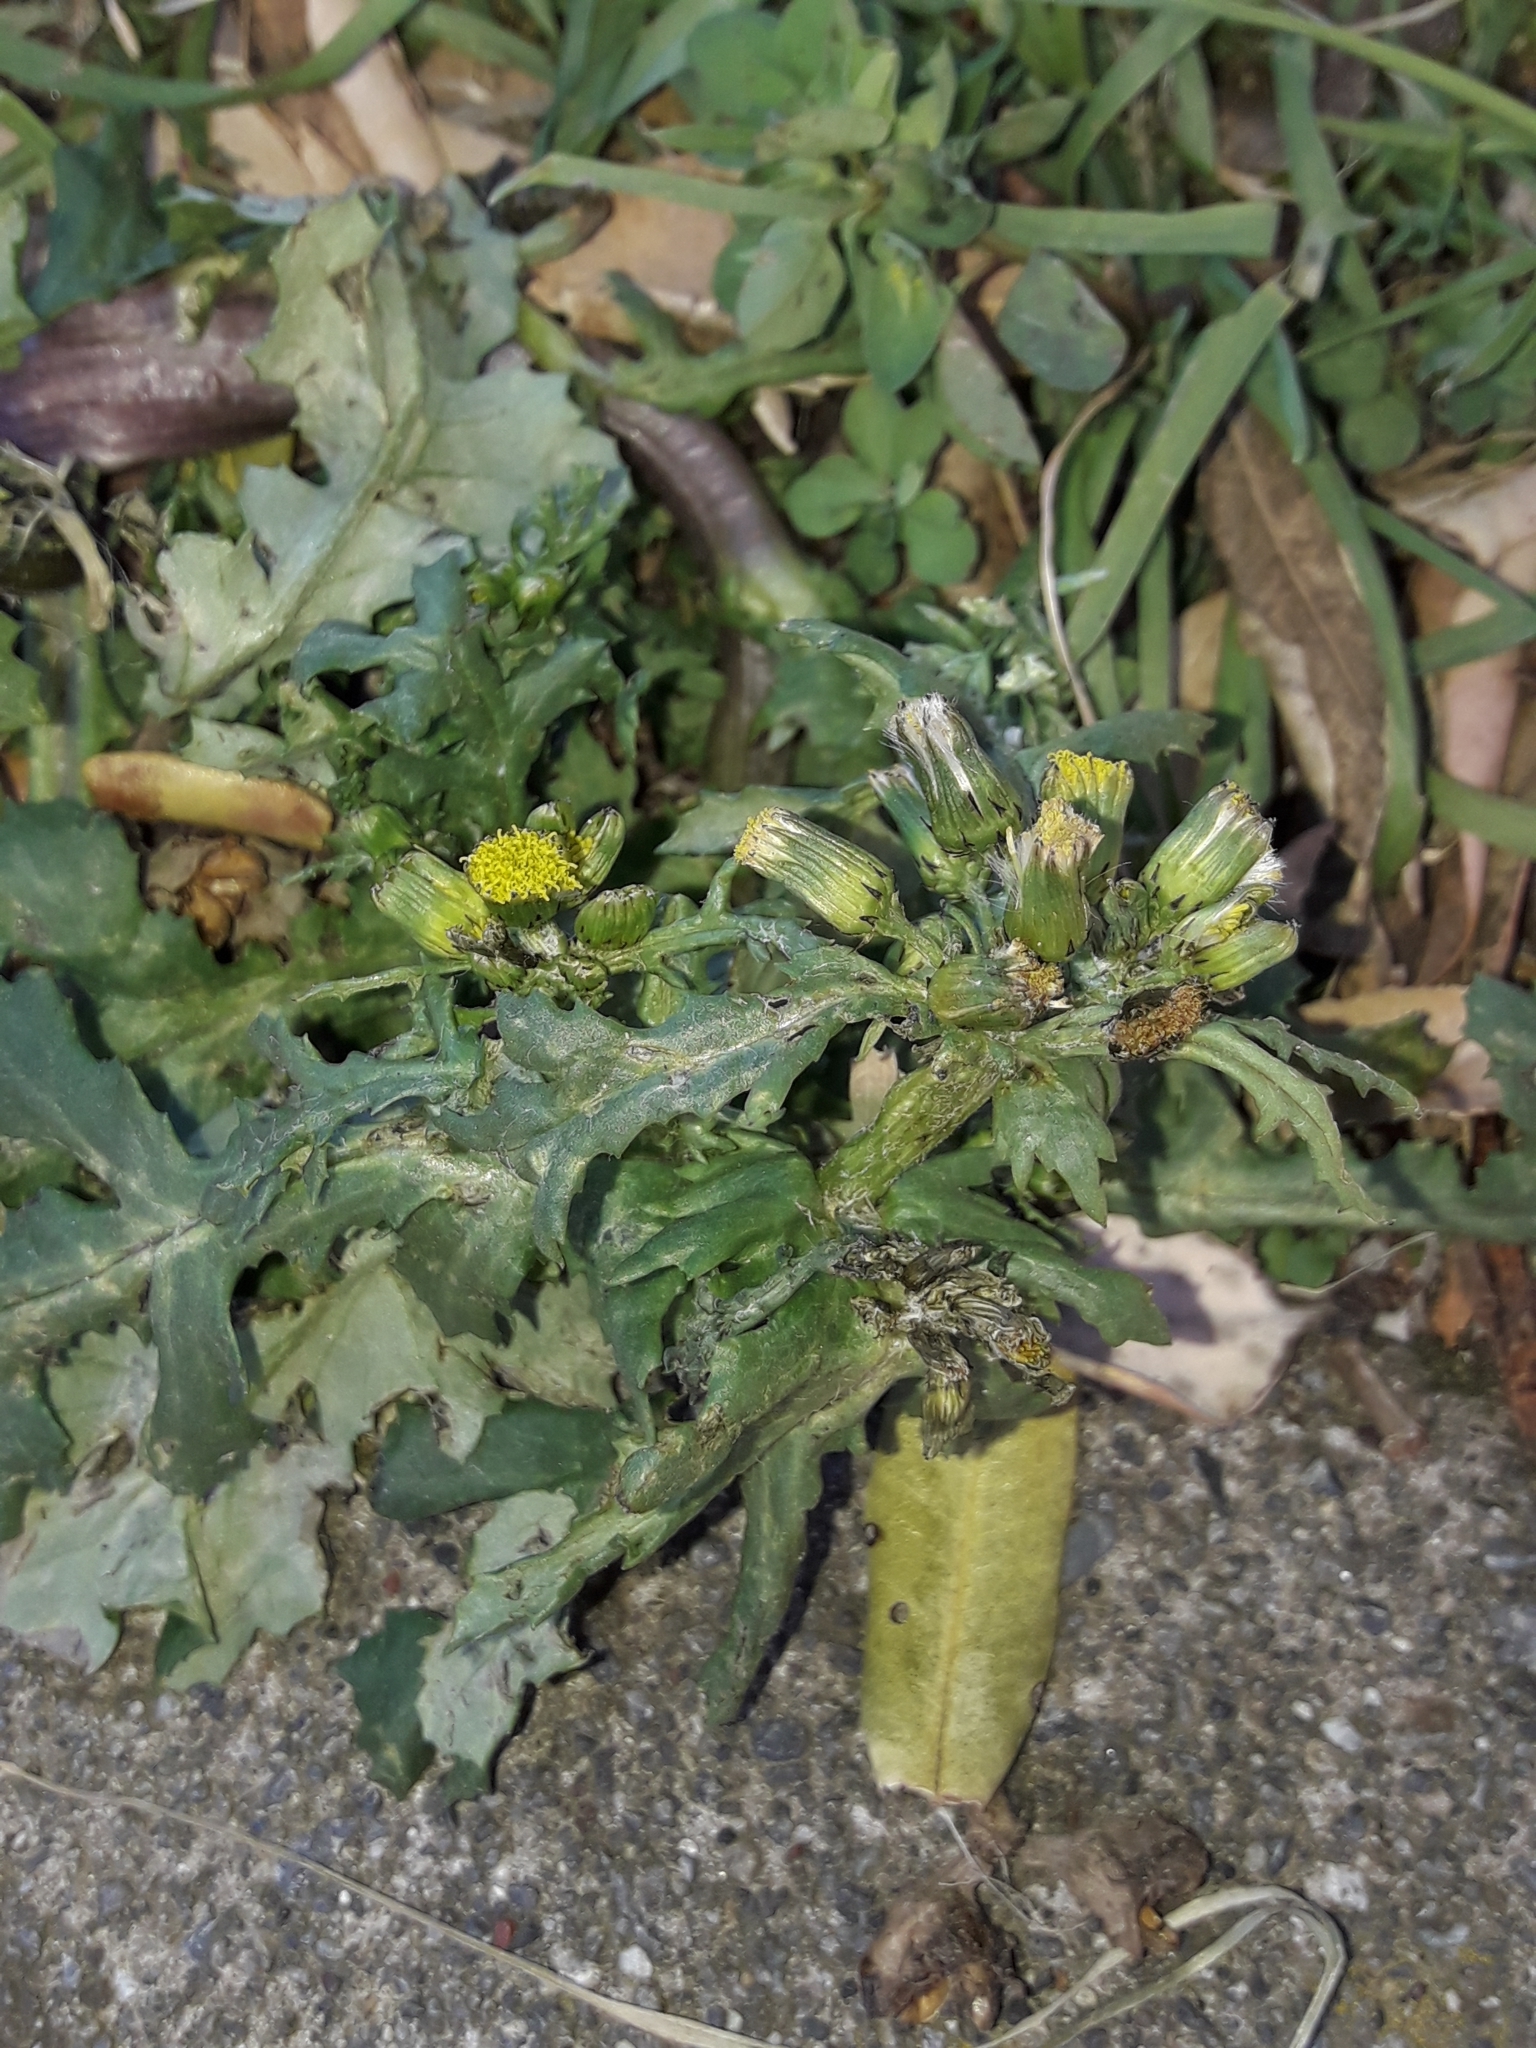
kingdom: Plantae
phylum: Tracheophyta
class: Magnoliopsida
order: Asterales
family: Asteraceae
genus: Senecio
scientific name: Senecio vulgaris
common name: Old-man-in-the-spring
